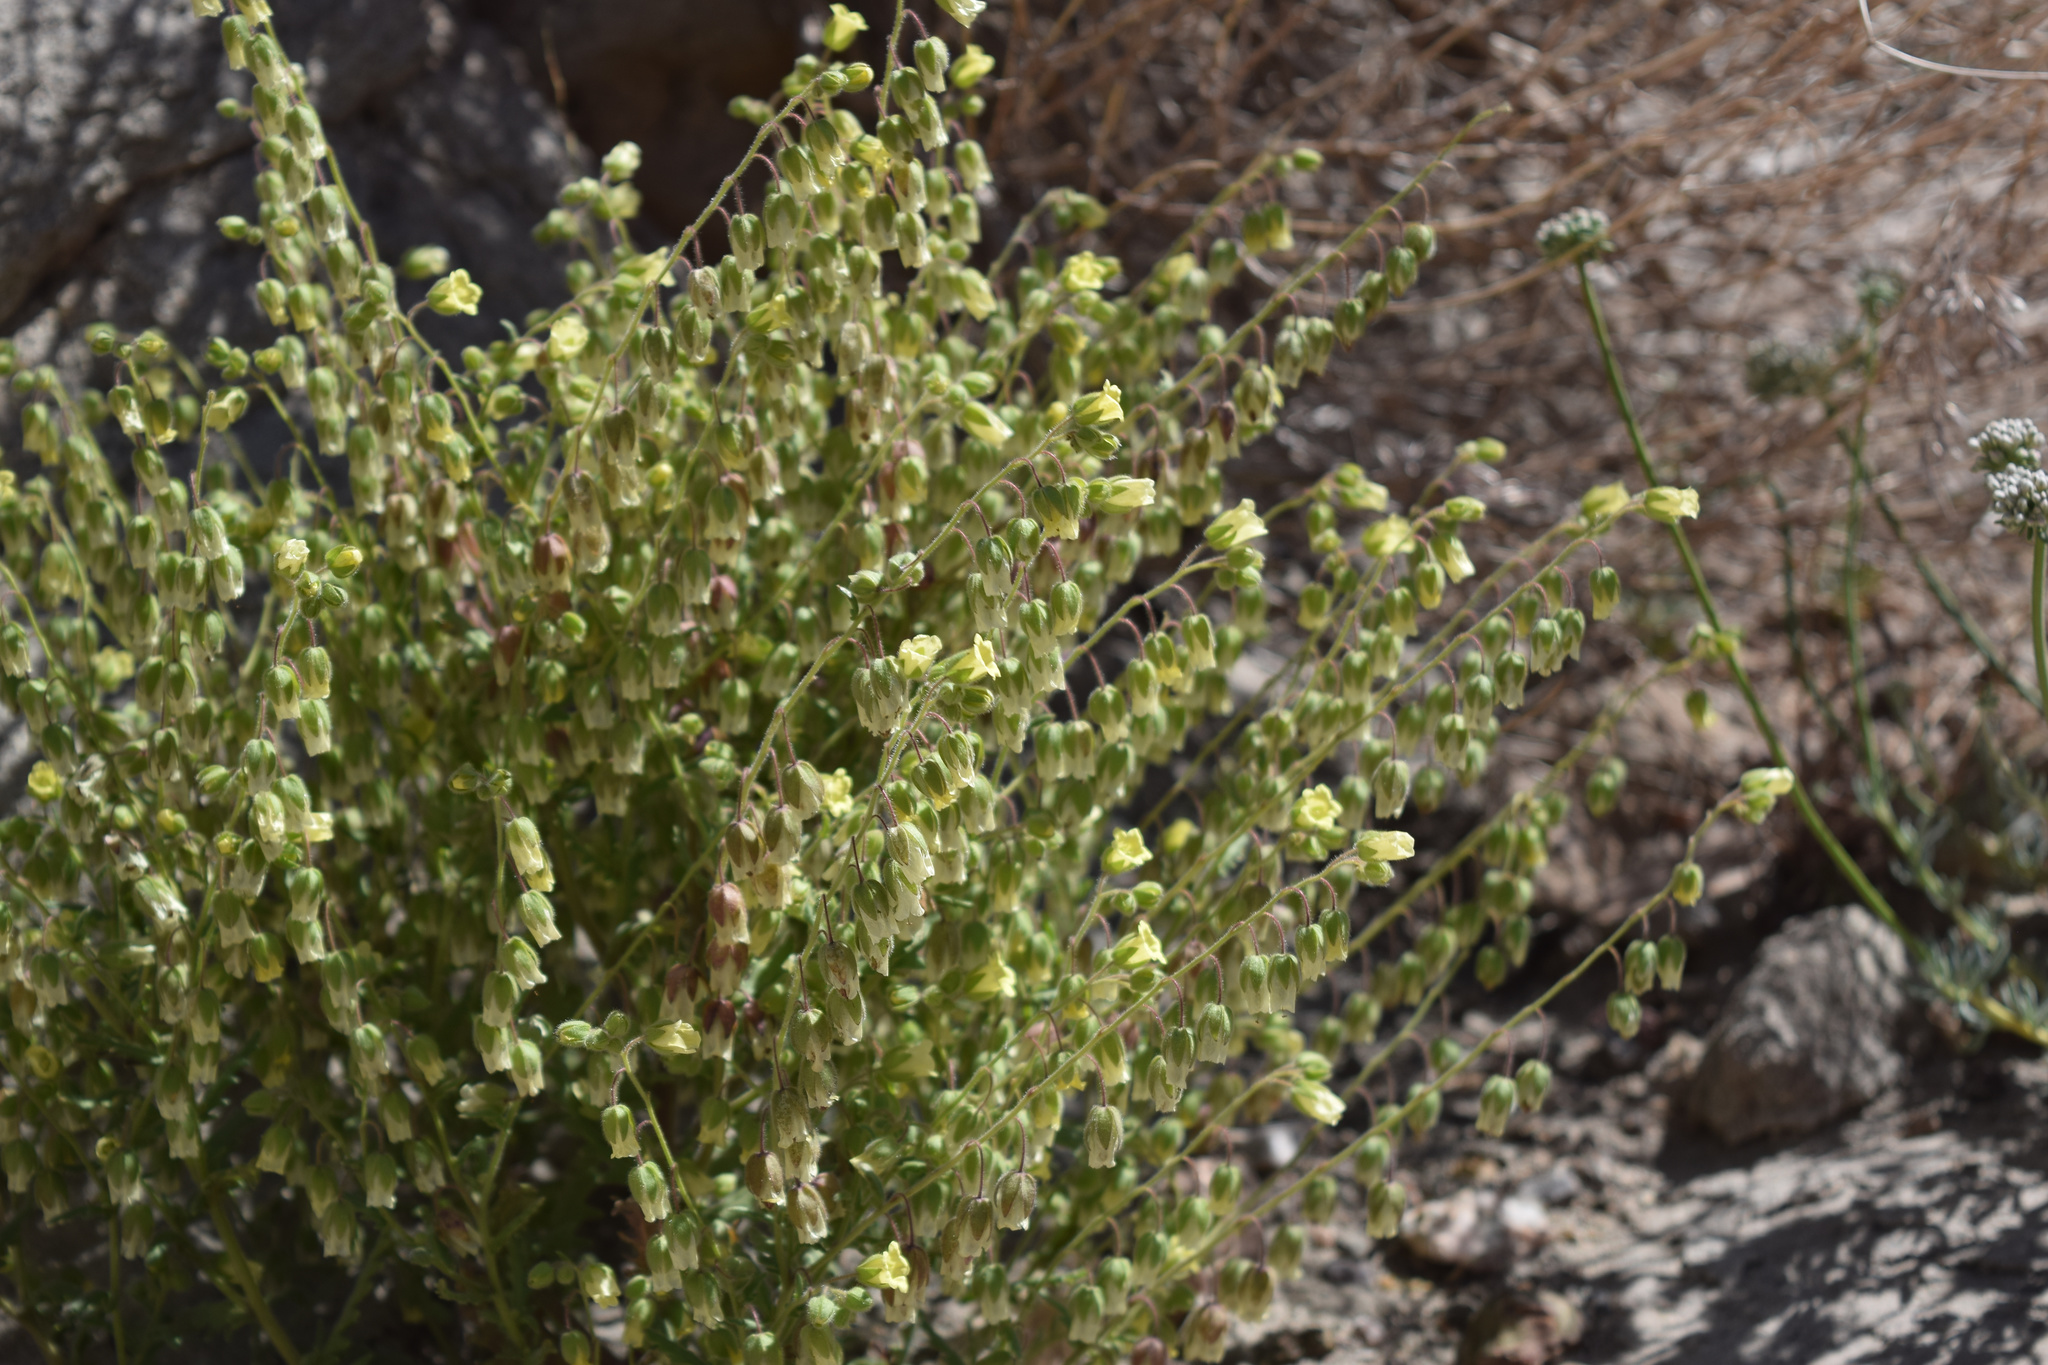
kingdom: Plantae
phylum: Tracheophyta
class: Magnoliopsida
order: Boraginales
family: Hydrophyllaceae
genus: Emmenanthe
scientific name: Emmenanthe penduliflora
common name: Whispering-bells
